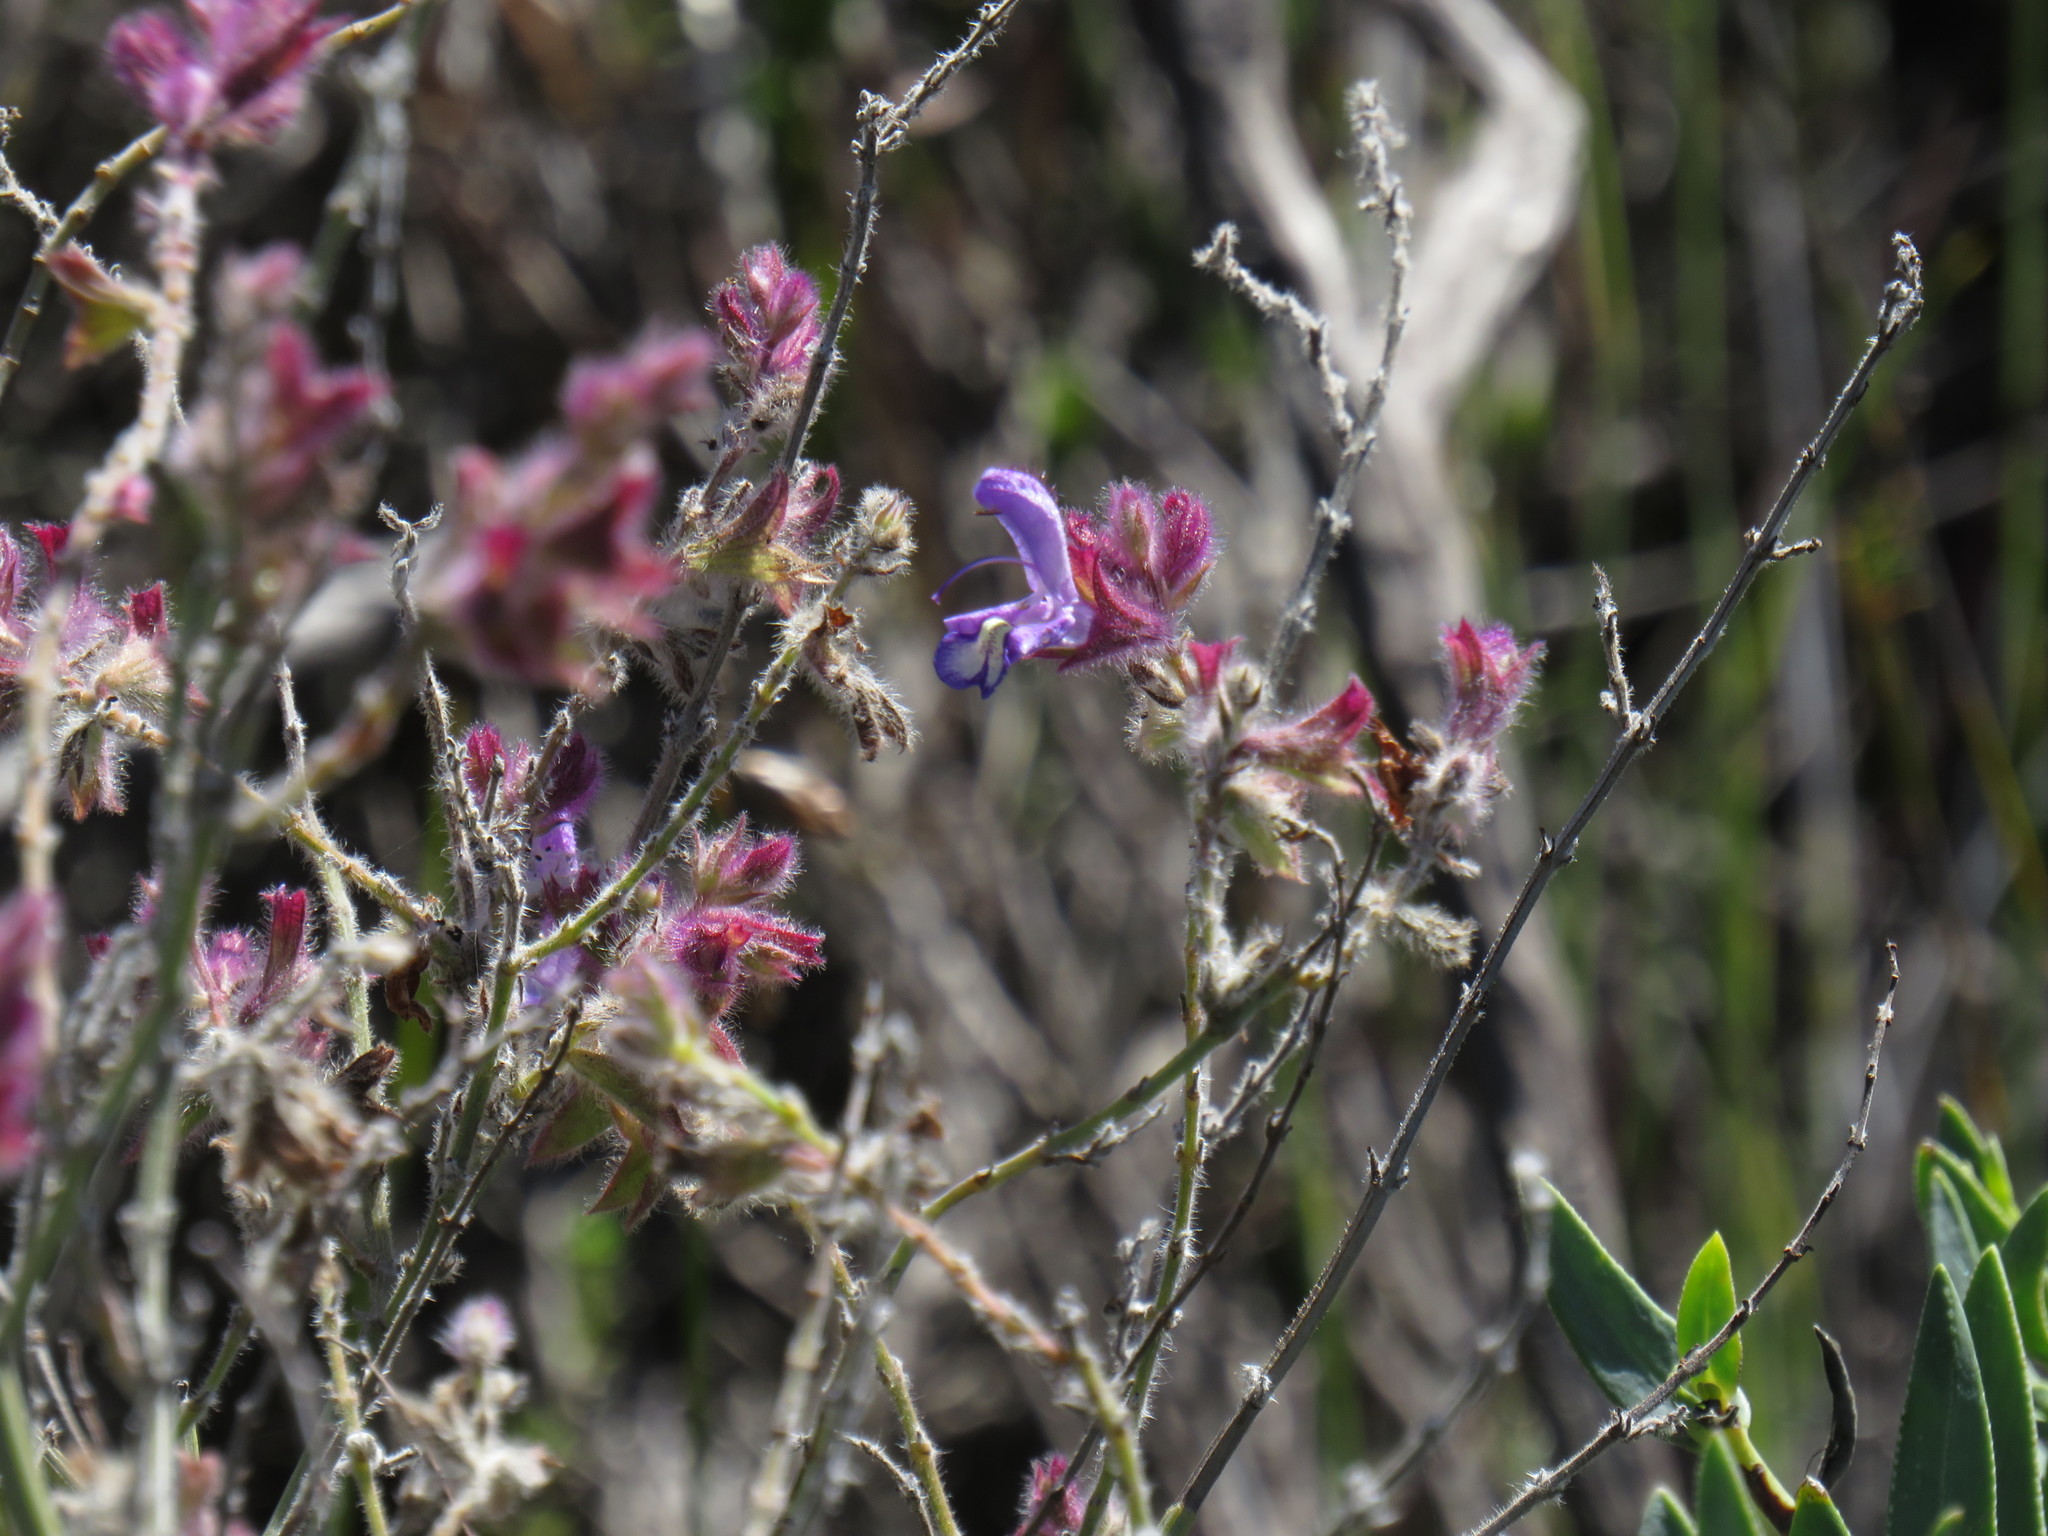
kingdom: Plantae
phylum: Tracheophyta
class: Magnoliopsida
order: Lamiales
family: Lamiaceae
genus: Salvia
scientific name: Salvia albicaulis
